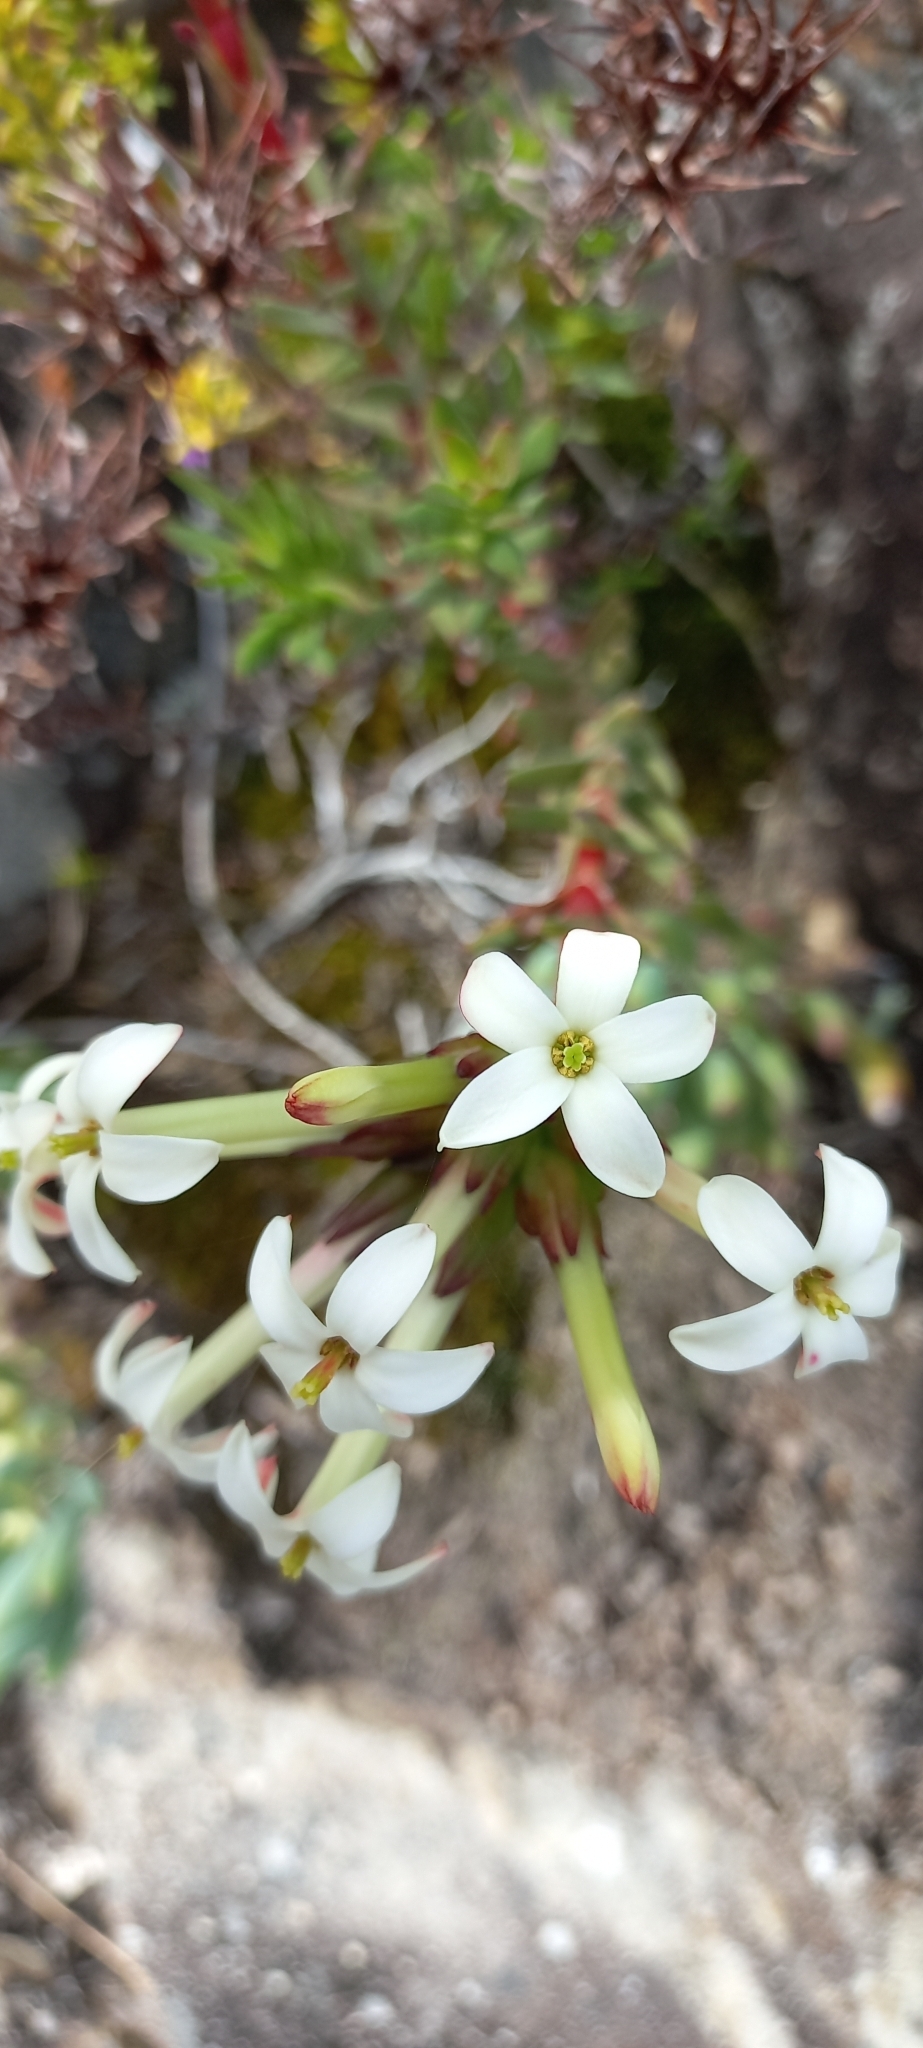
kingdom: Plantae
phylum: Tracheophyta
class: Magnoliopsida
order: Saxifragales
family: Crassulaceae
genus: Crassula
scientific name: Crassula obtusa
